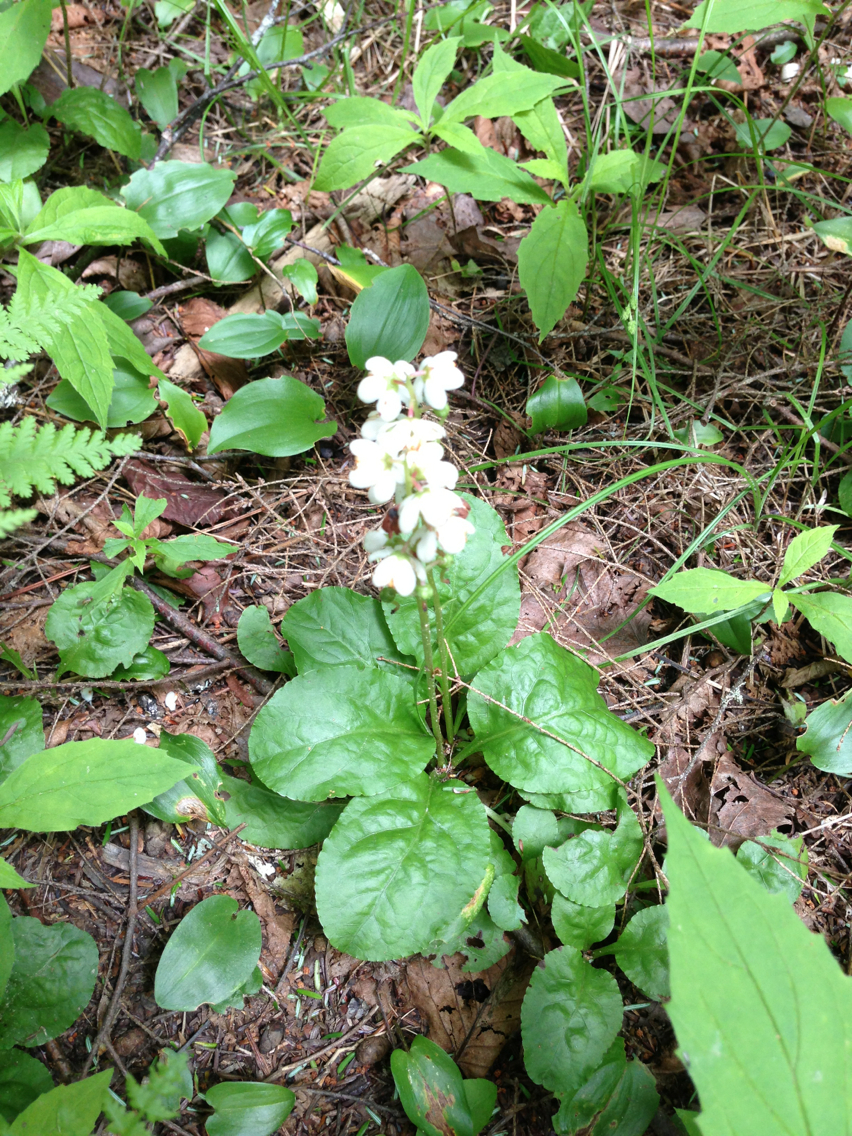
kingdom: Plantae
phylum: Tracheophyta
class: Magnoliopsida
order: Ericales
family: Ericaceae
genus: Pyrola
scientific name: Pyrola elliptica
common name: Shinleaf
